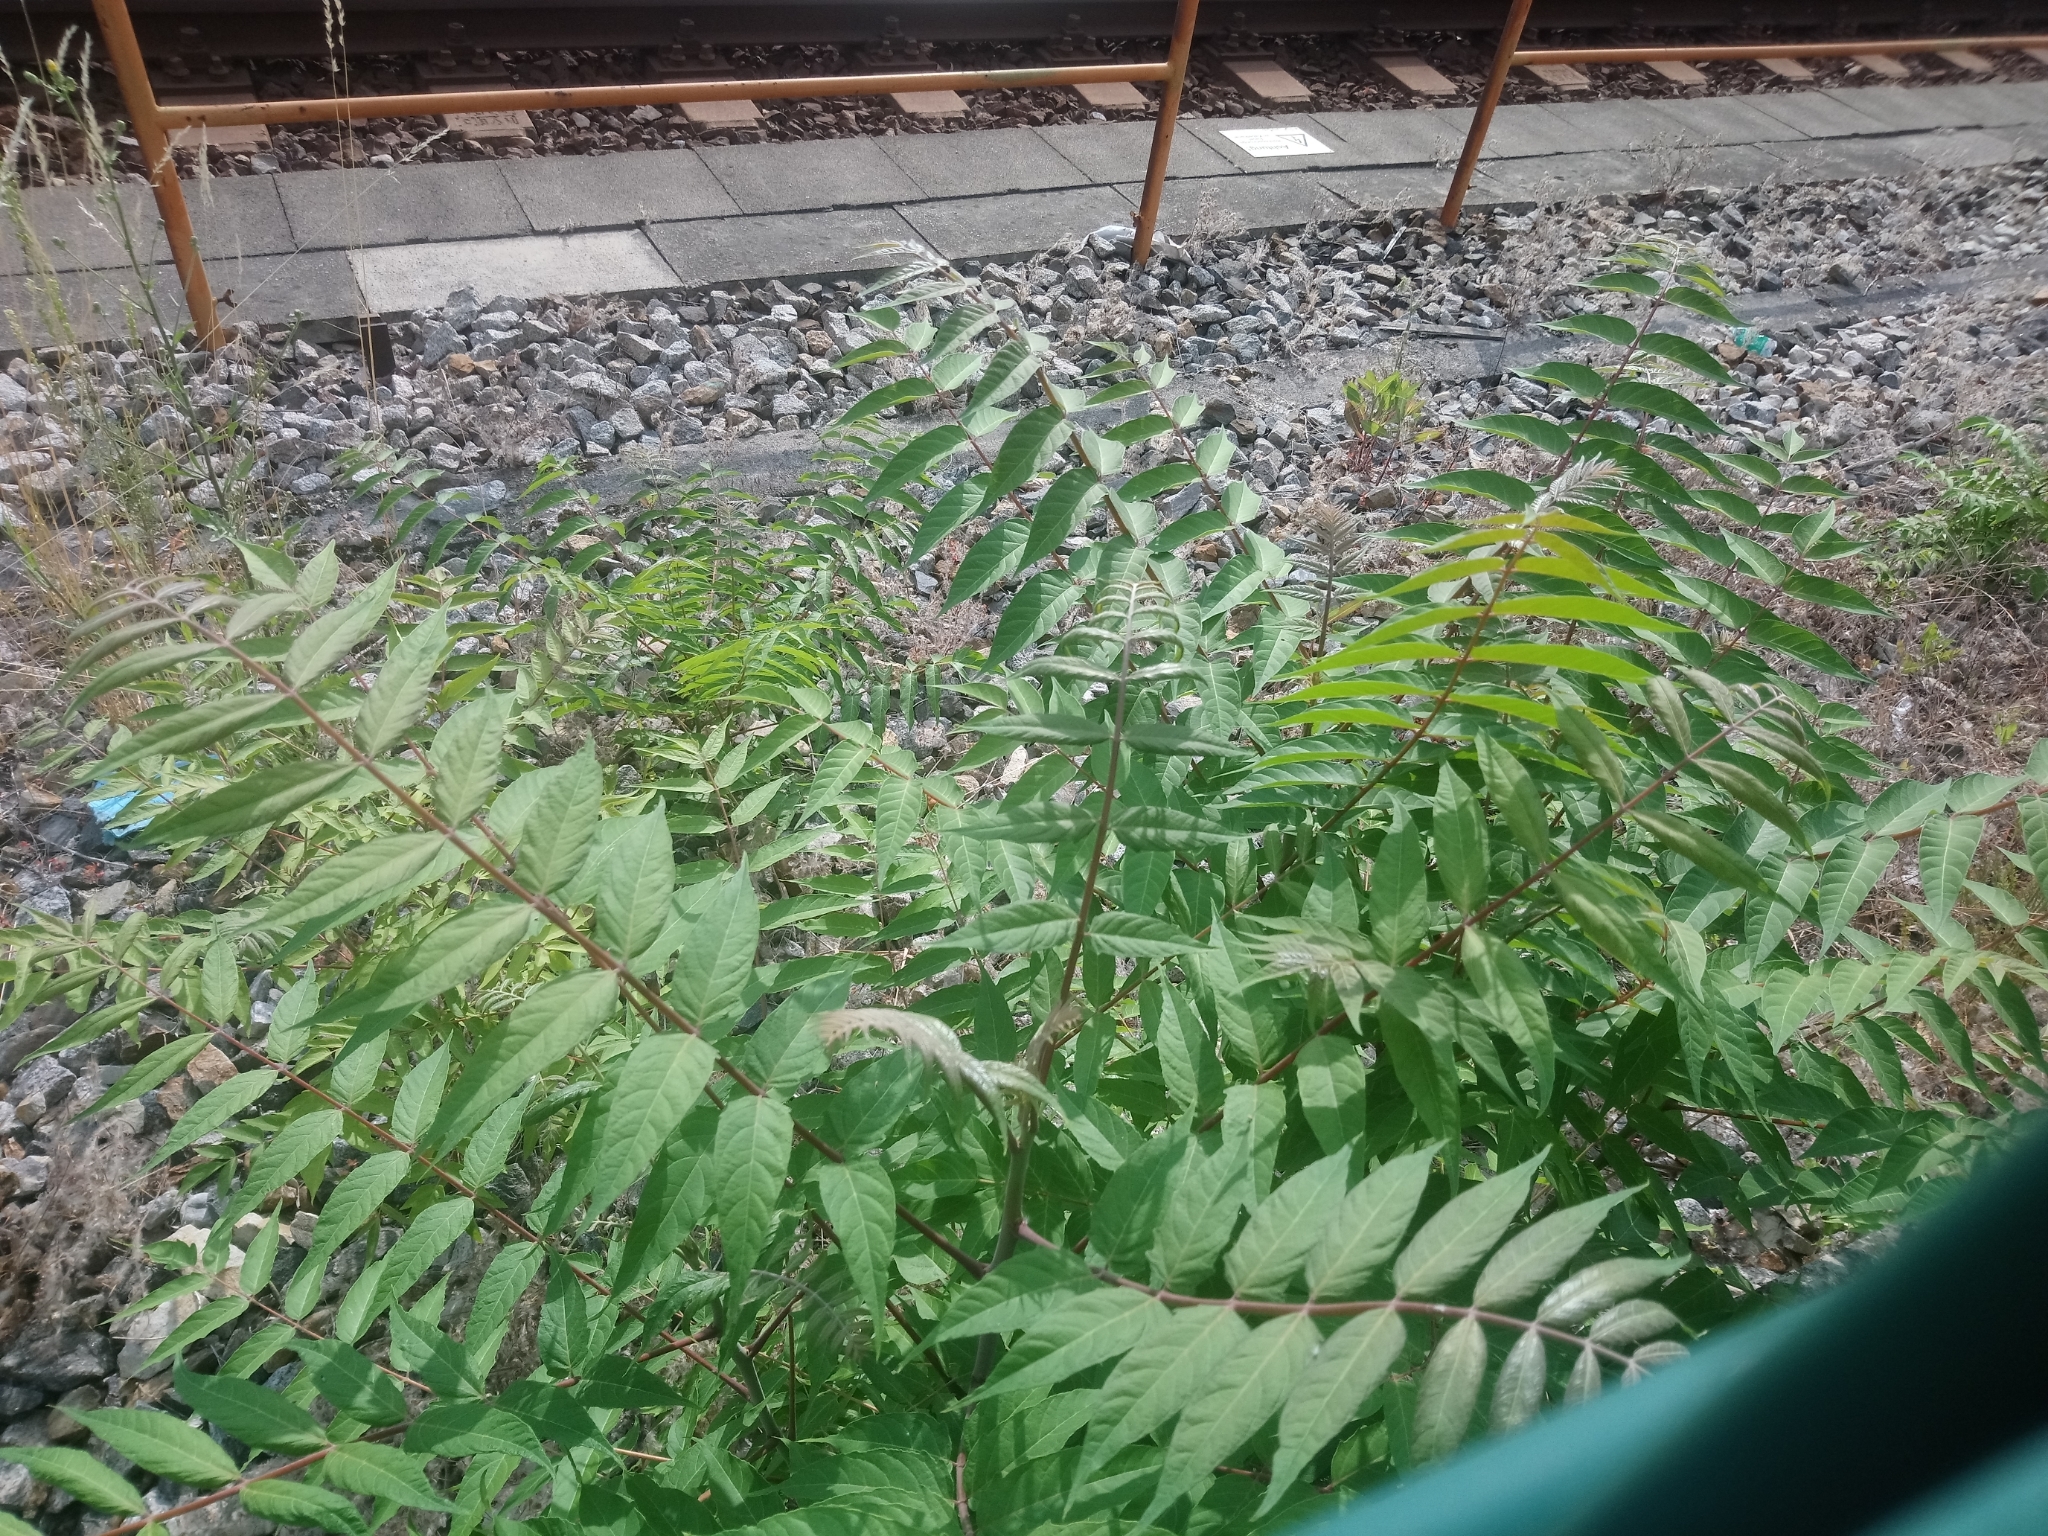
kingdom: Plantae
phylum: Tracheophyta
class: Magnoliopsida
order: Sapindales
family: Simaroubaceae
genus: Ailanthus
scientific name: Ailanthus altissima
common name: Tree-of-heaven
